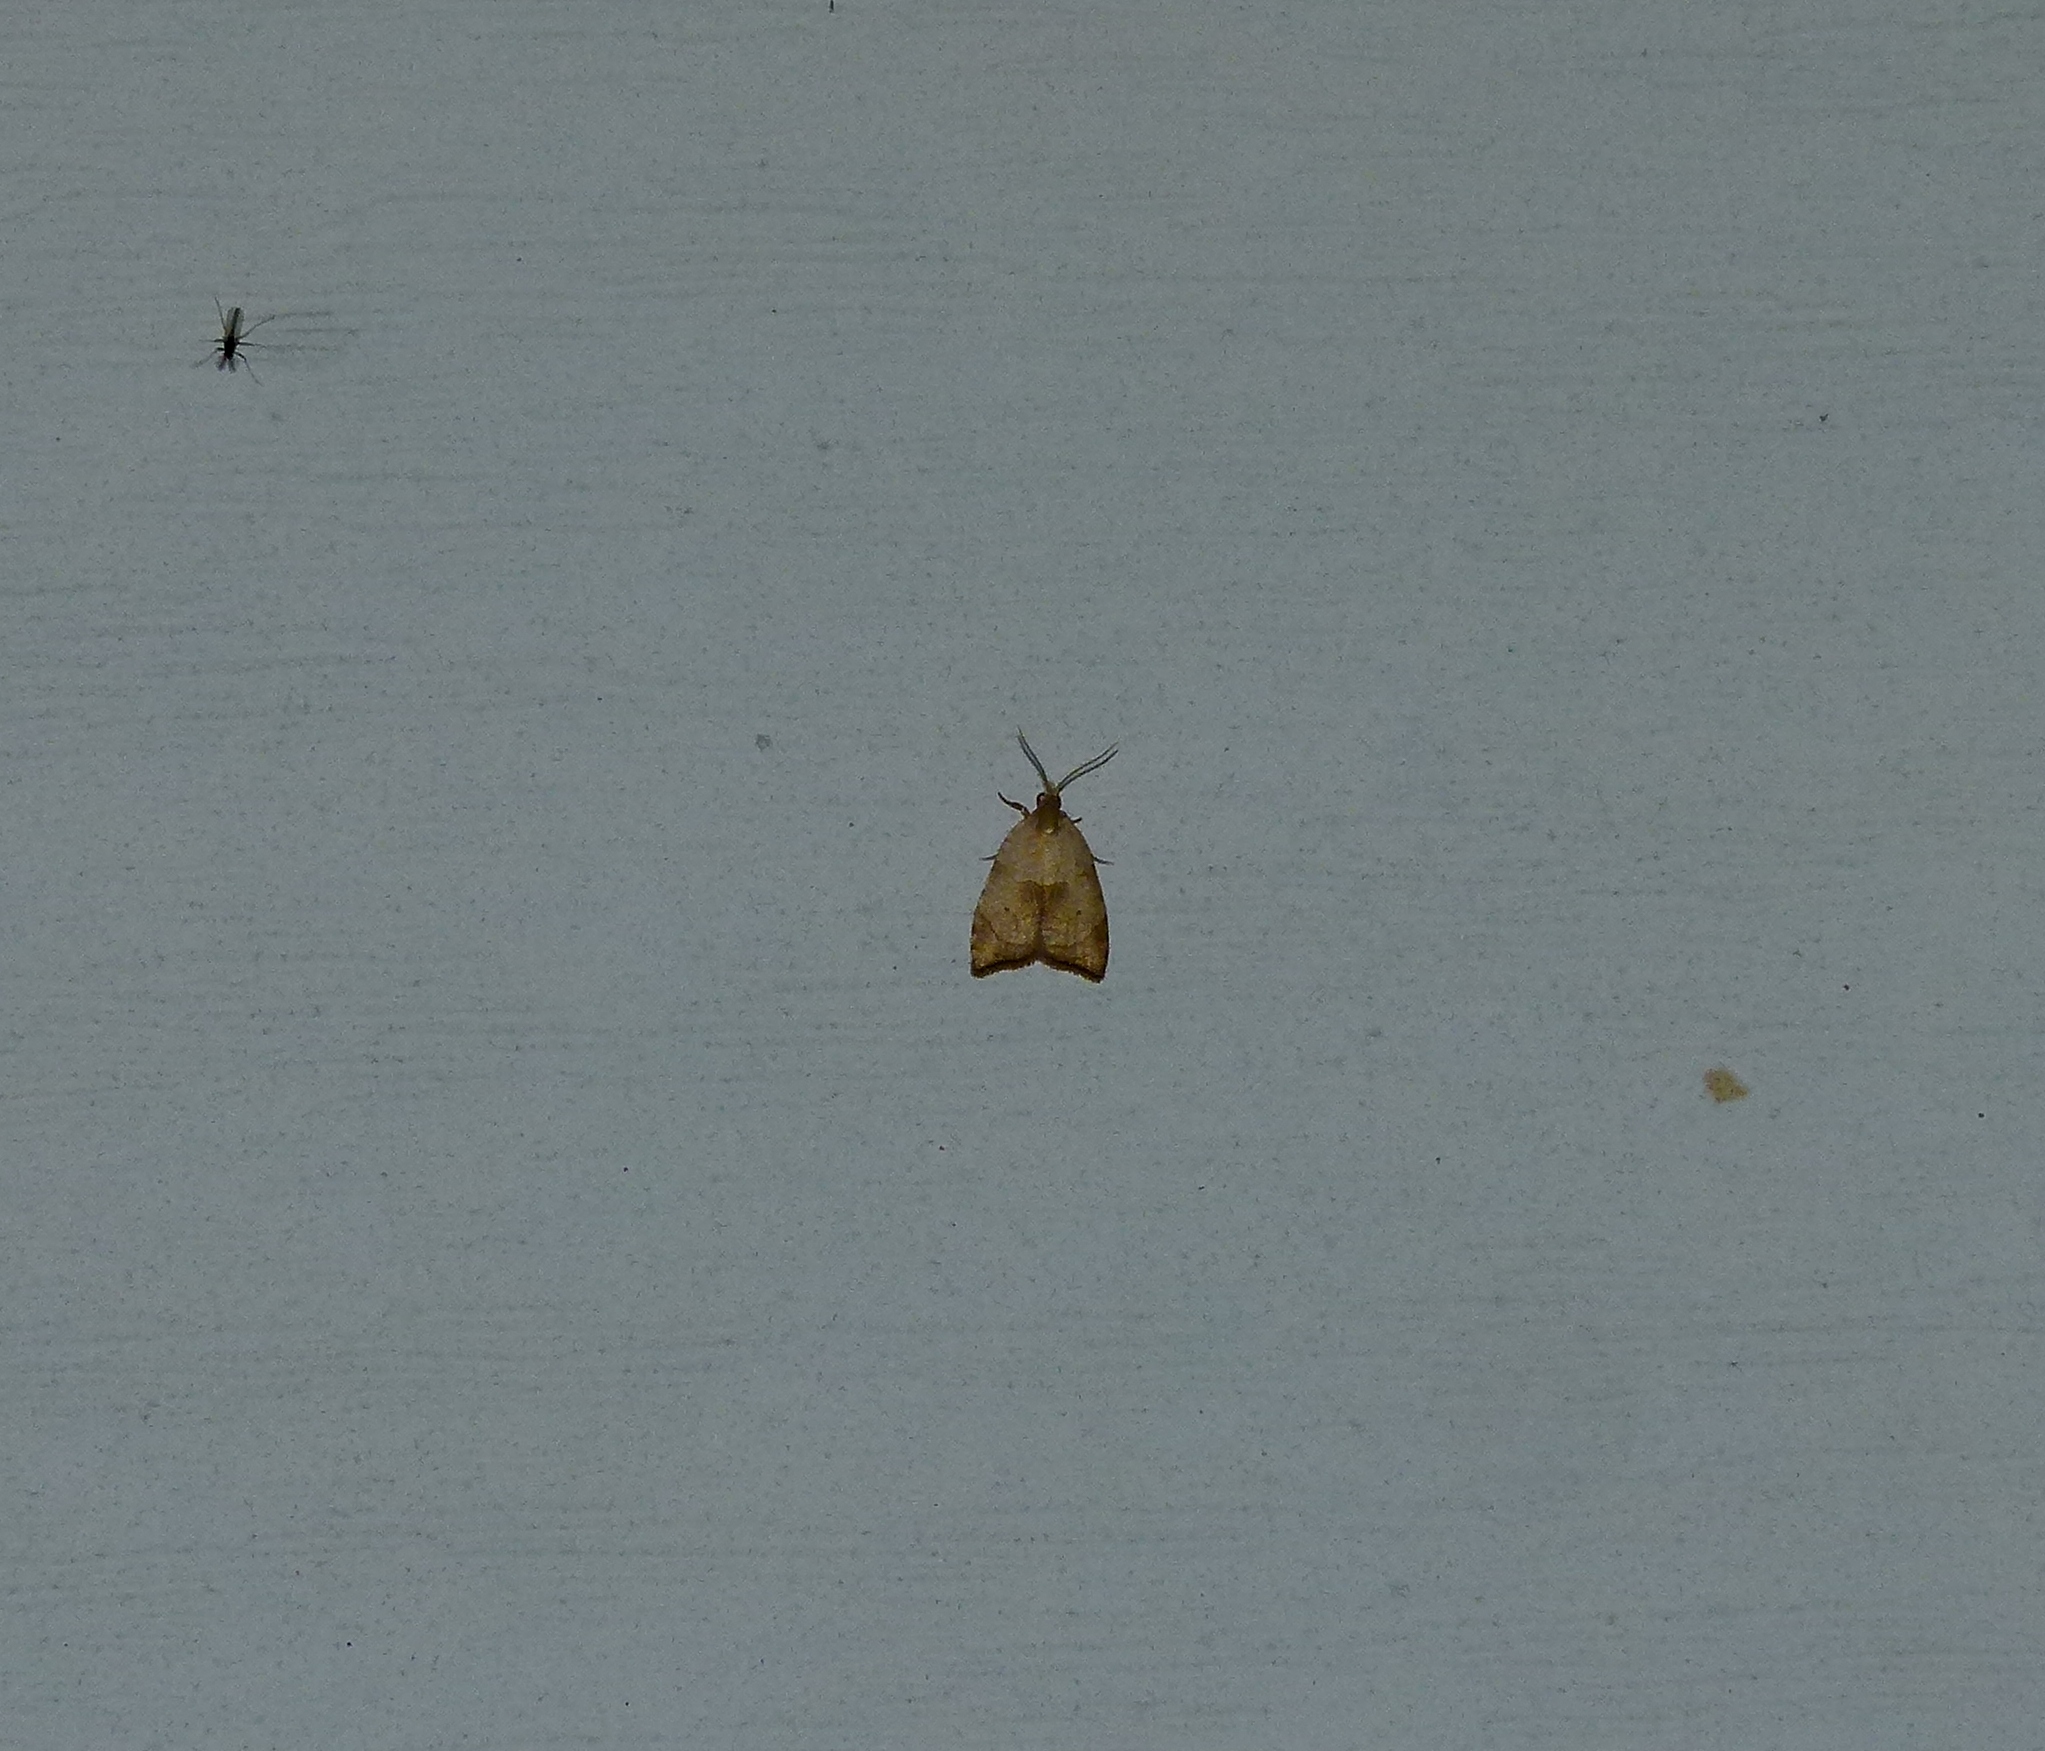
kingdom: Animalia
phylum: Arthropoda
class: Insecta
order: Lepidoptera
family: Tortricidae
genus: Coelostathma
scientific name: Coelostathma discopunctana
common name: Batman moth
